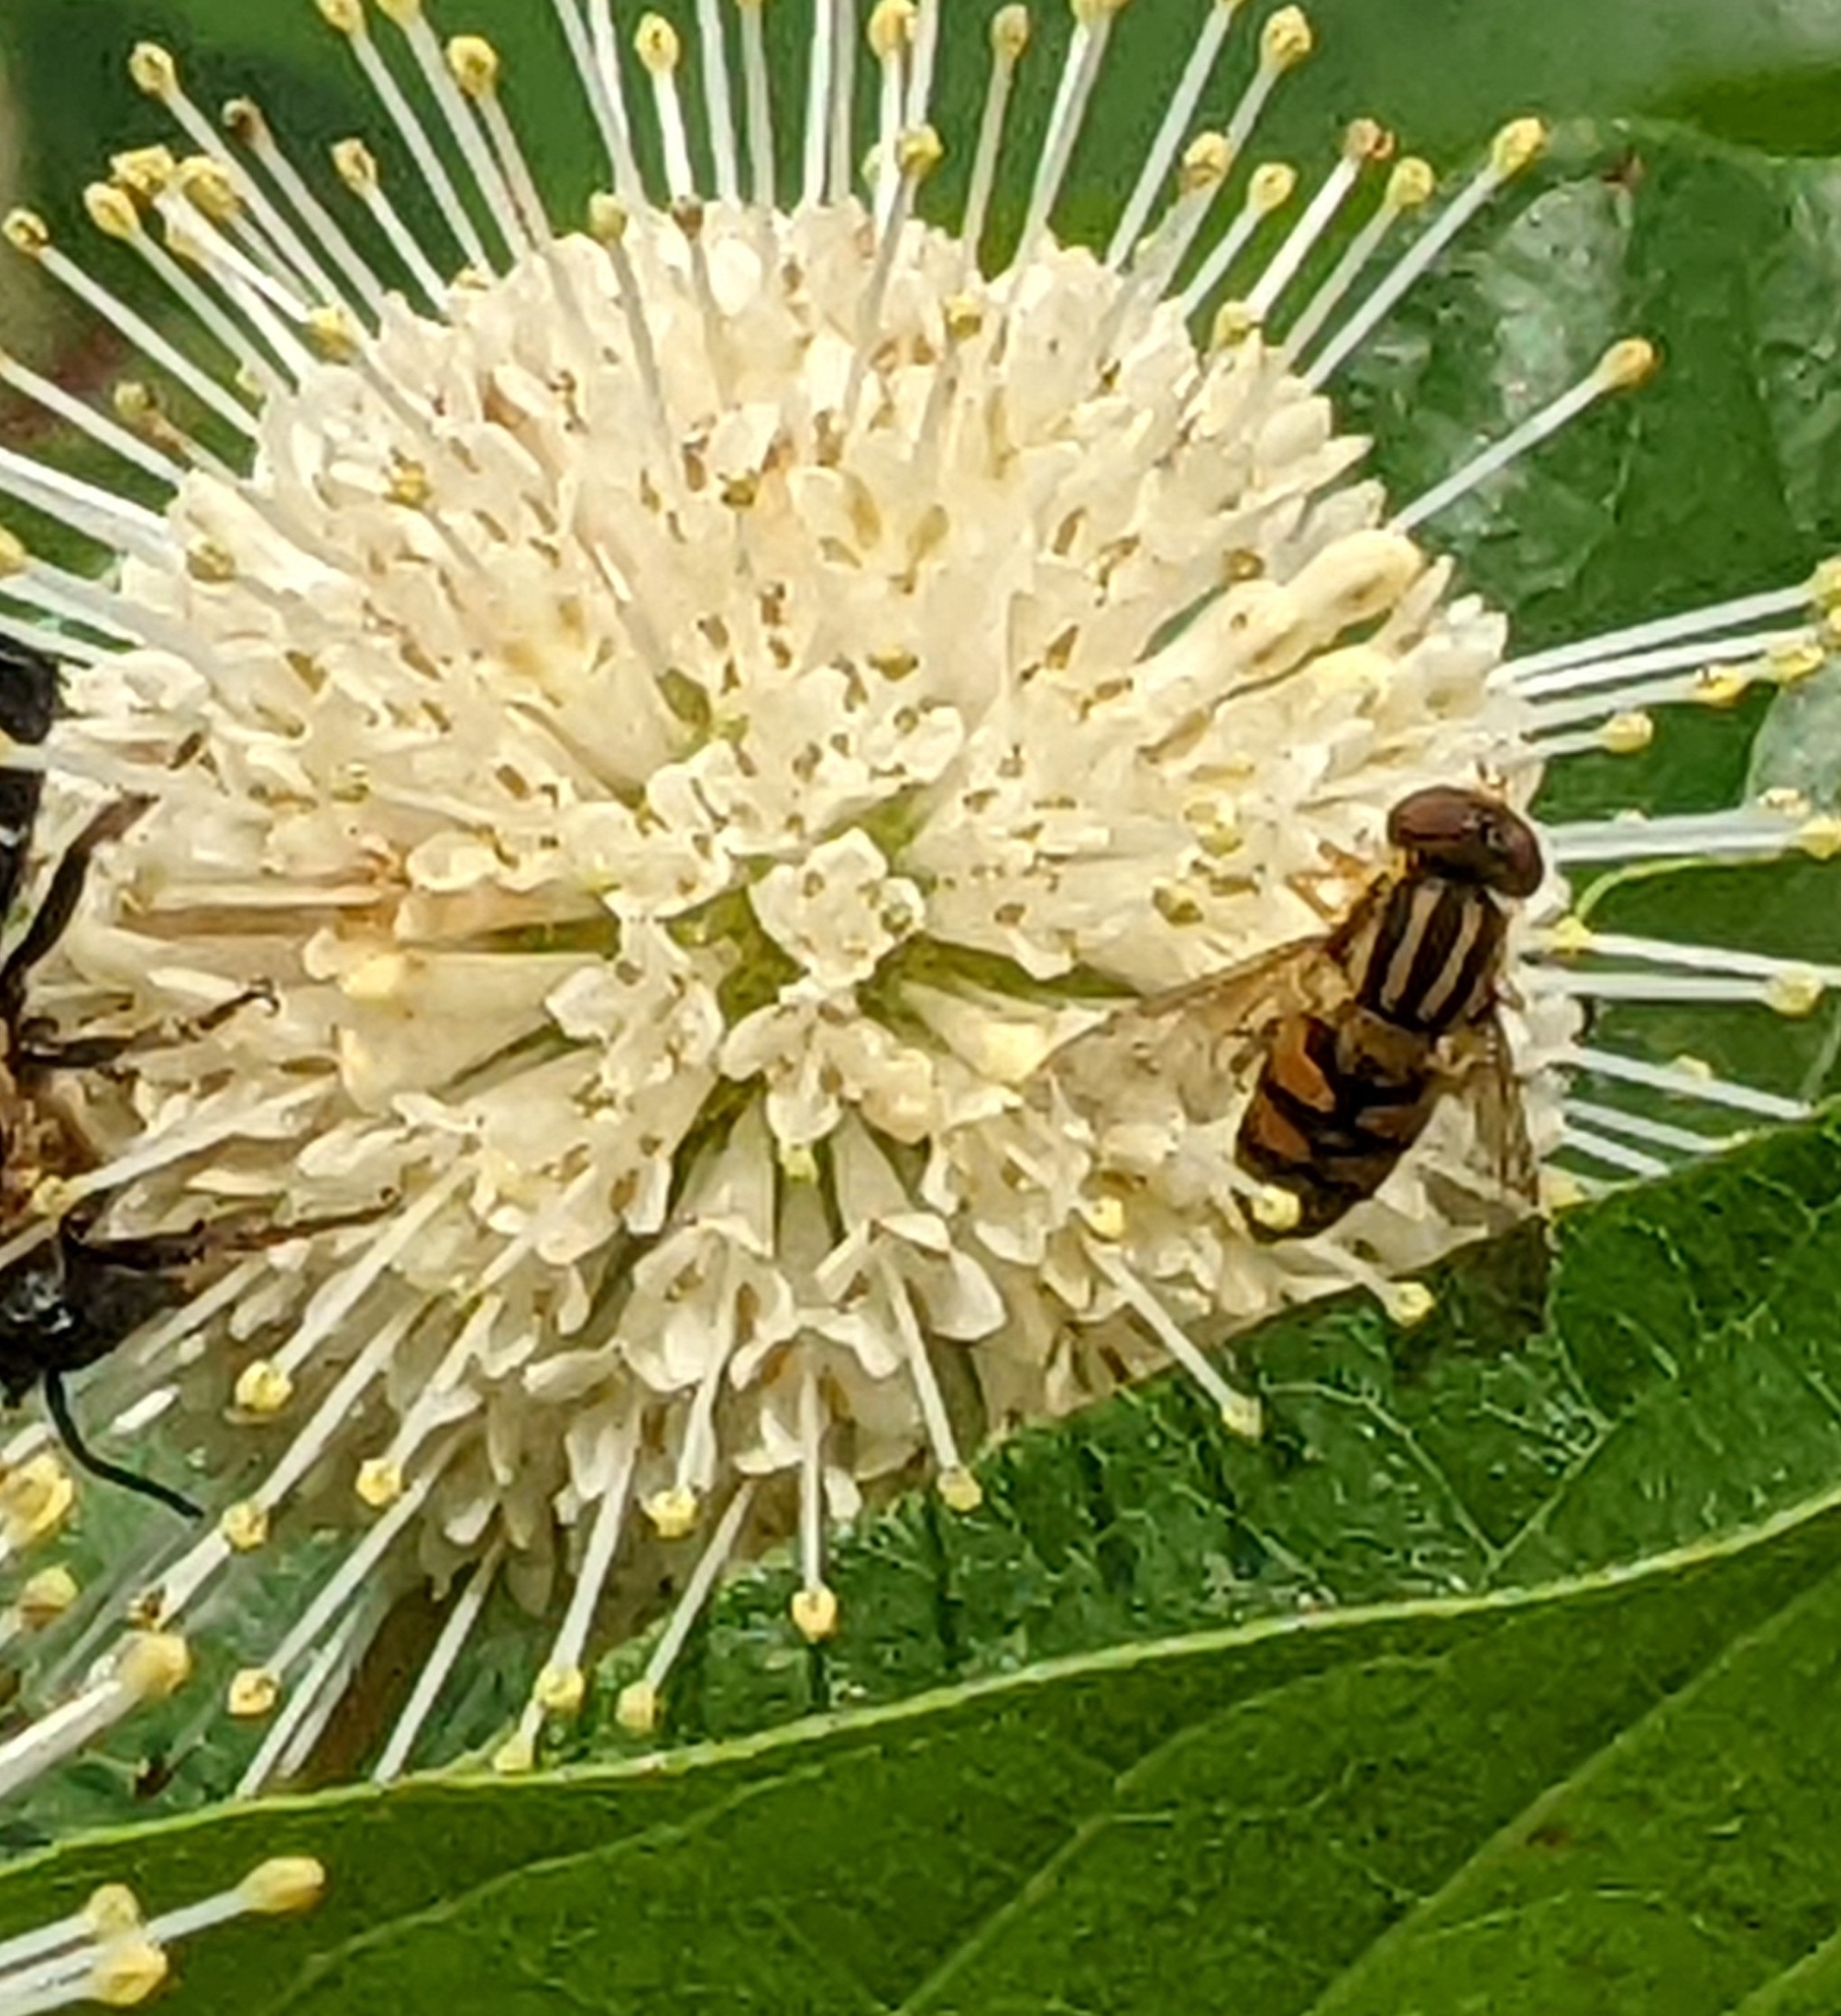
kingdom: Animalia
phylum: Arthropoda
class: Insecta
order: Diptera
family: Syrphidae
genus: Parhelophilus
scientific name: Parhelophilus integer
